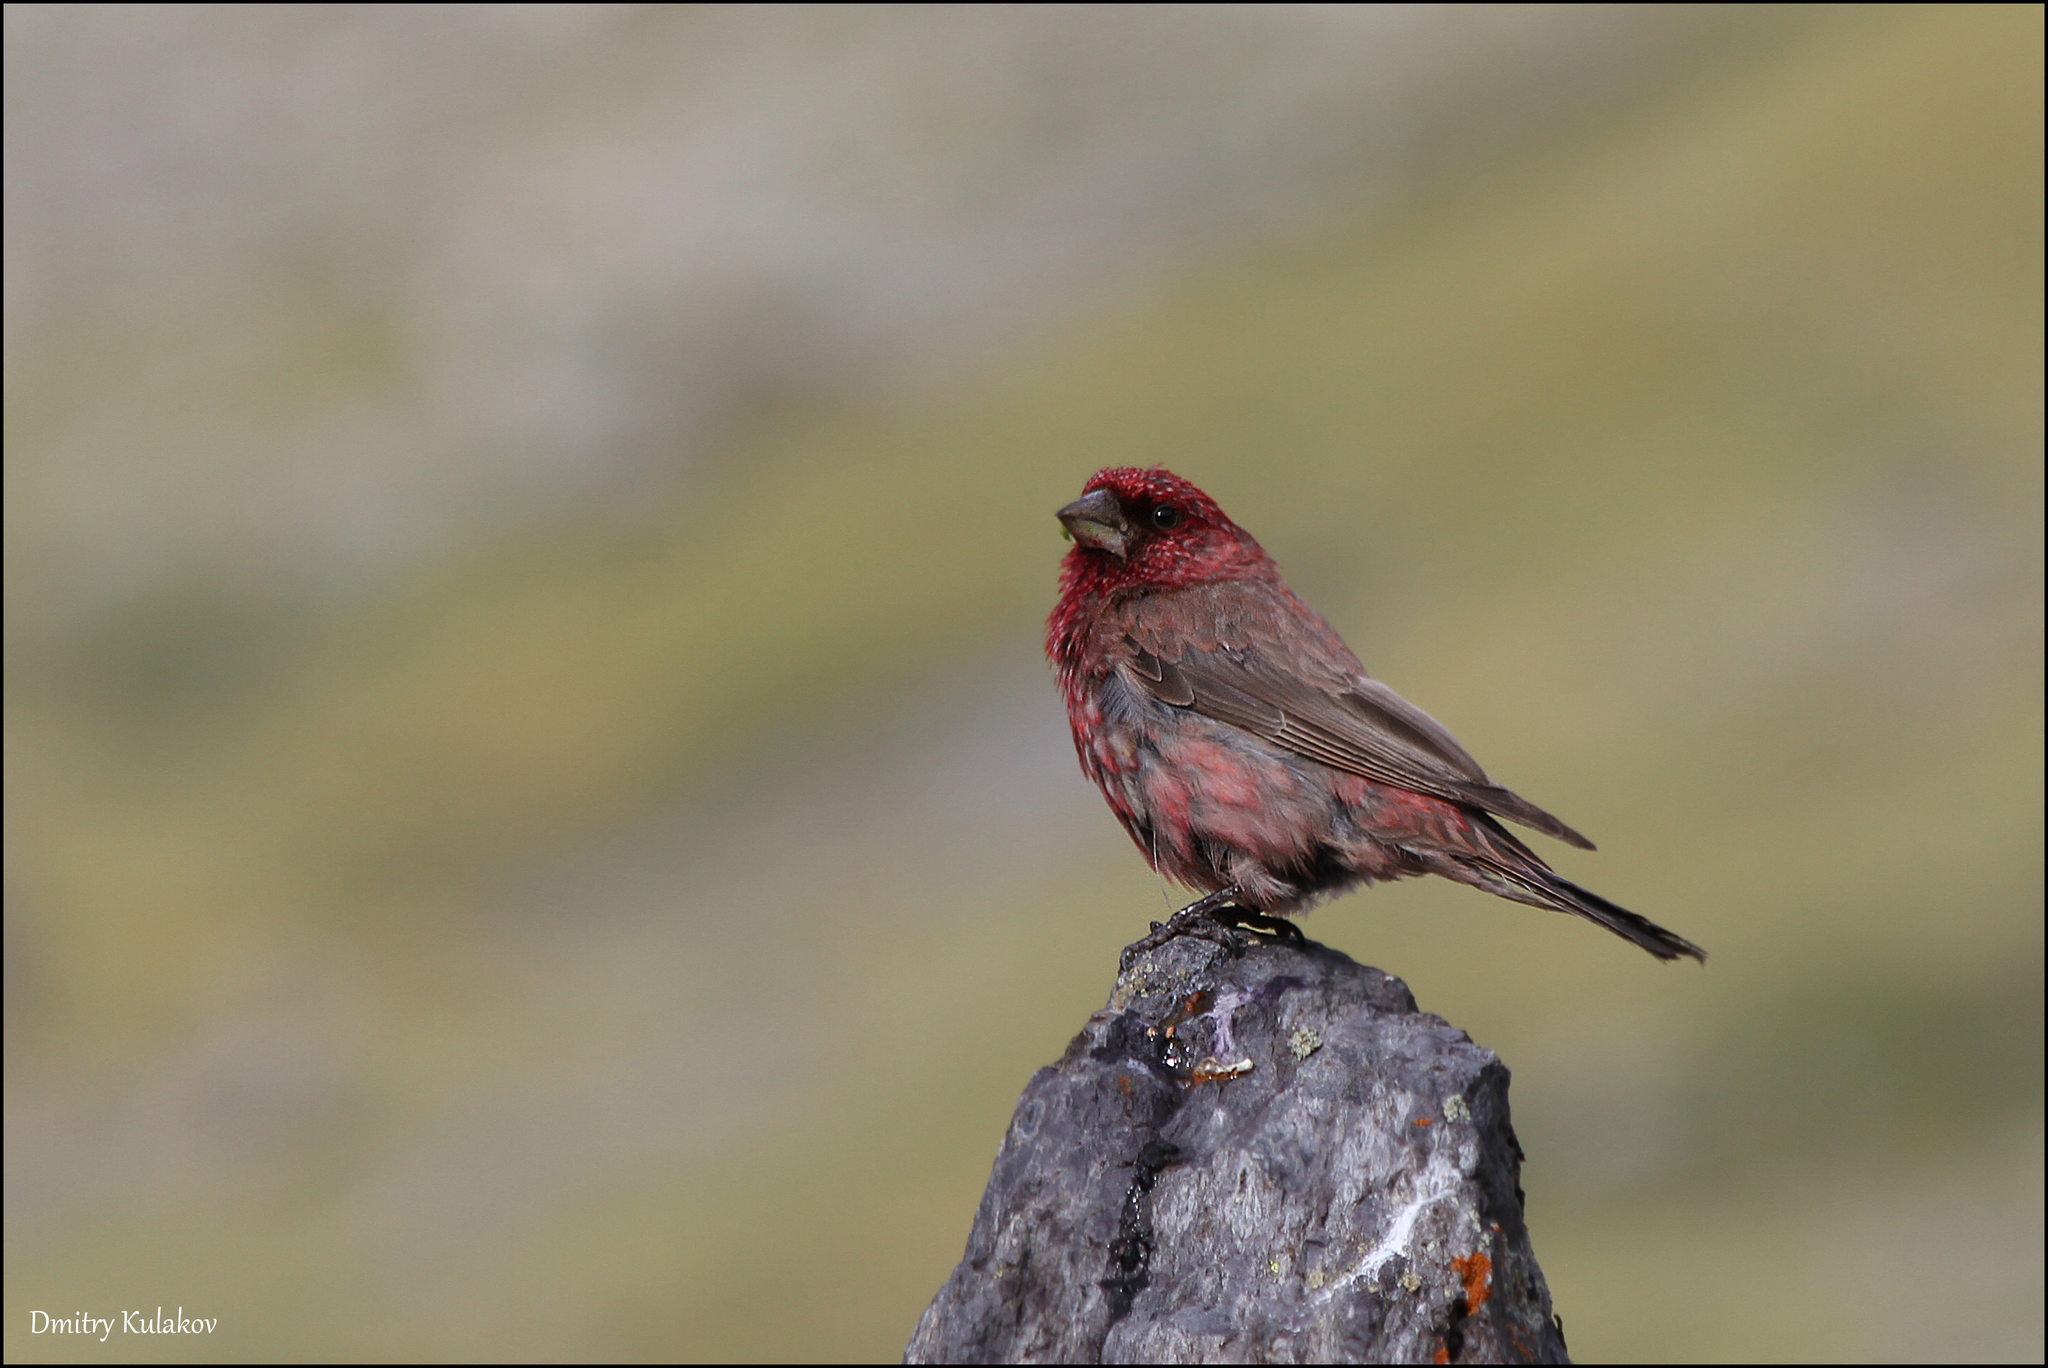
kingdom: Animalia
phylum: Chordata
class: Aves
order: Passeriformes
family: Fringillidae
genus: Carpodacus
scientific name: Carpodacus rubicilla
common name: Great rosefinch
